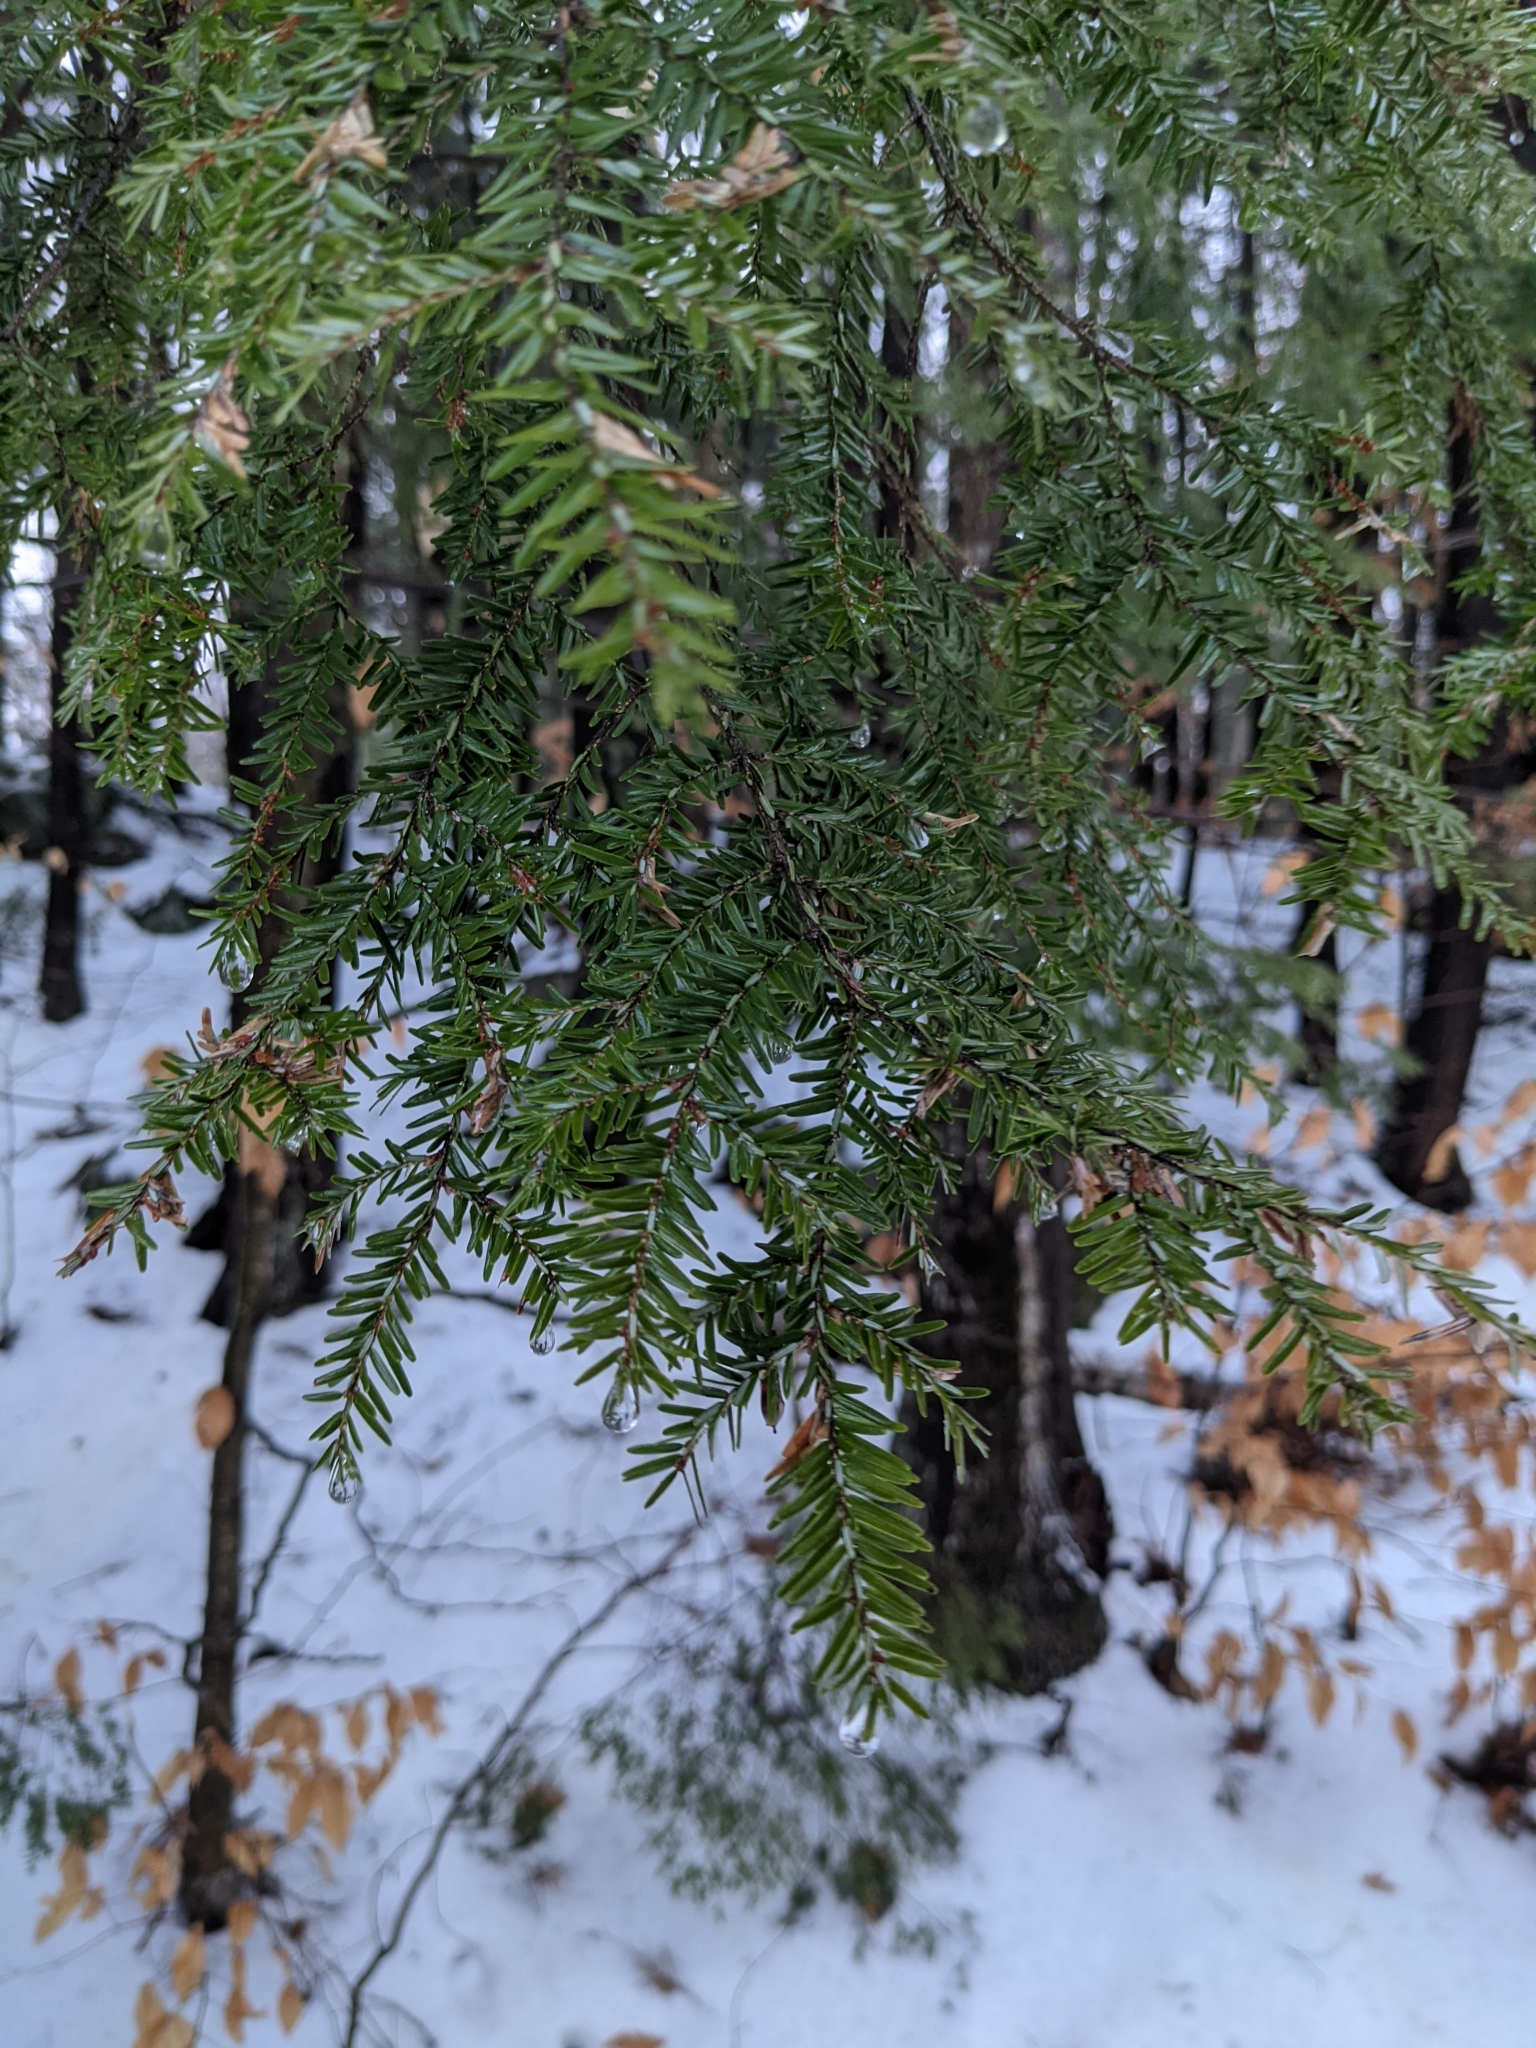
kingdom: Plantae
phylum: Tracheophyta
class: Pinopsida
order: Pinales
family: Pinaceae
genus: Tsuga
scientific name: Tsuga canadensis
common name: Eastern hemlock
